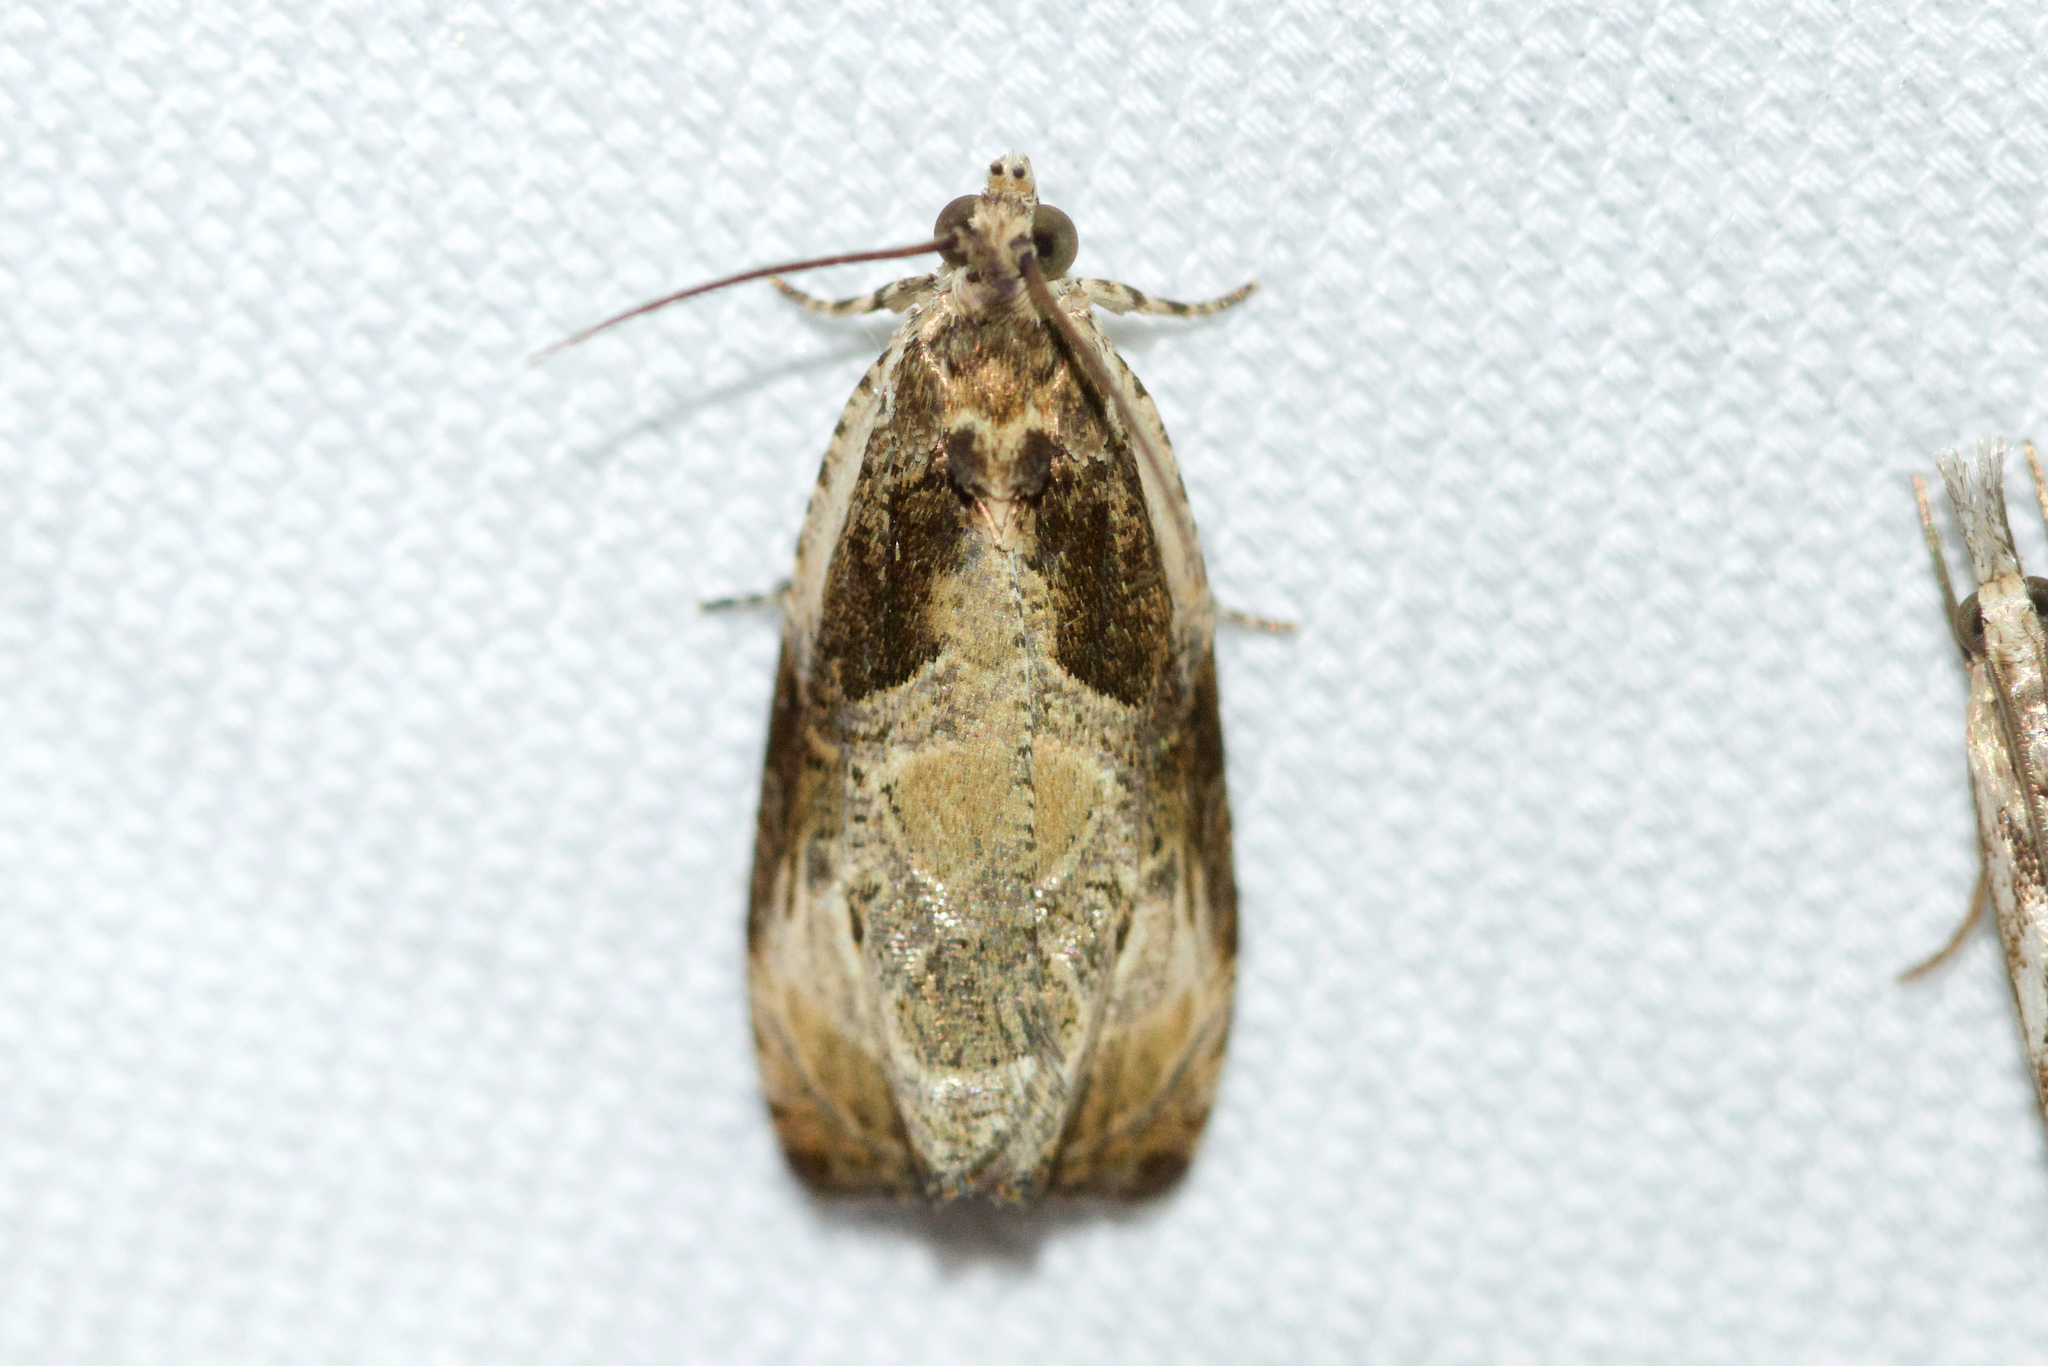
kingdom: Animalia
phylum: Arthropoda
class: Insecta
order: Lepidoptera
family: Tortricidae
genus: Olethreutes
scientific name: Olethreutes connectum
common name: Bunchberry leaffolder moth
